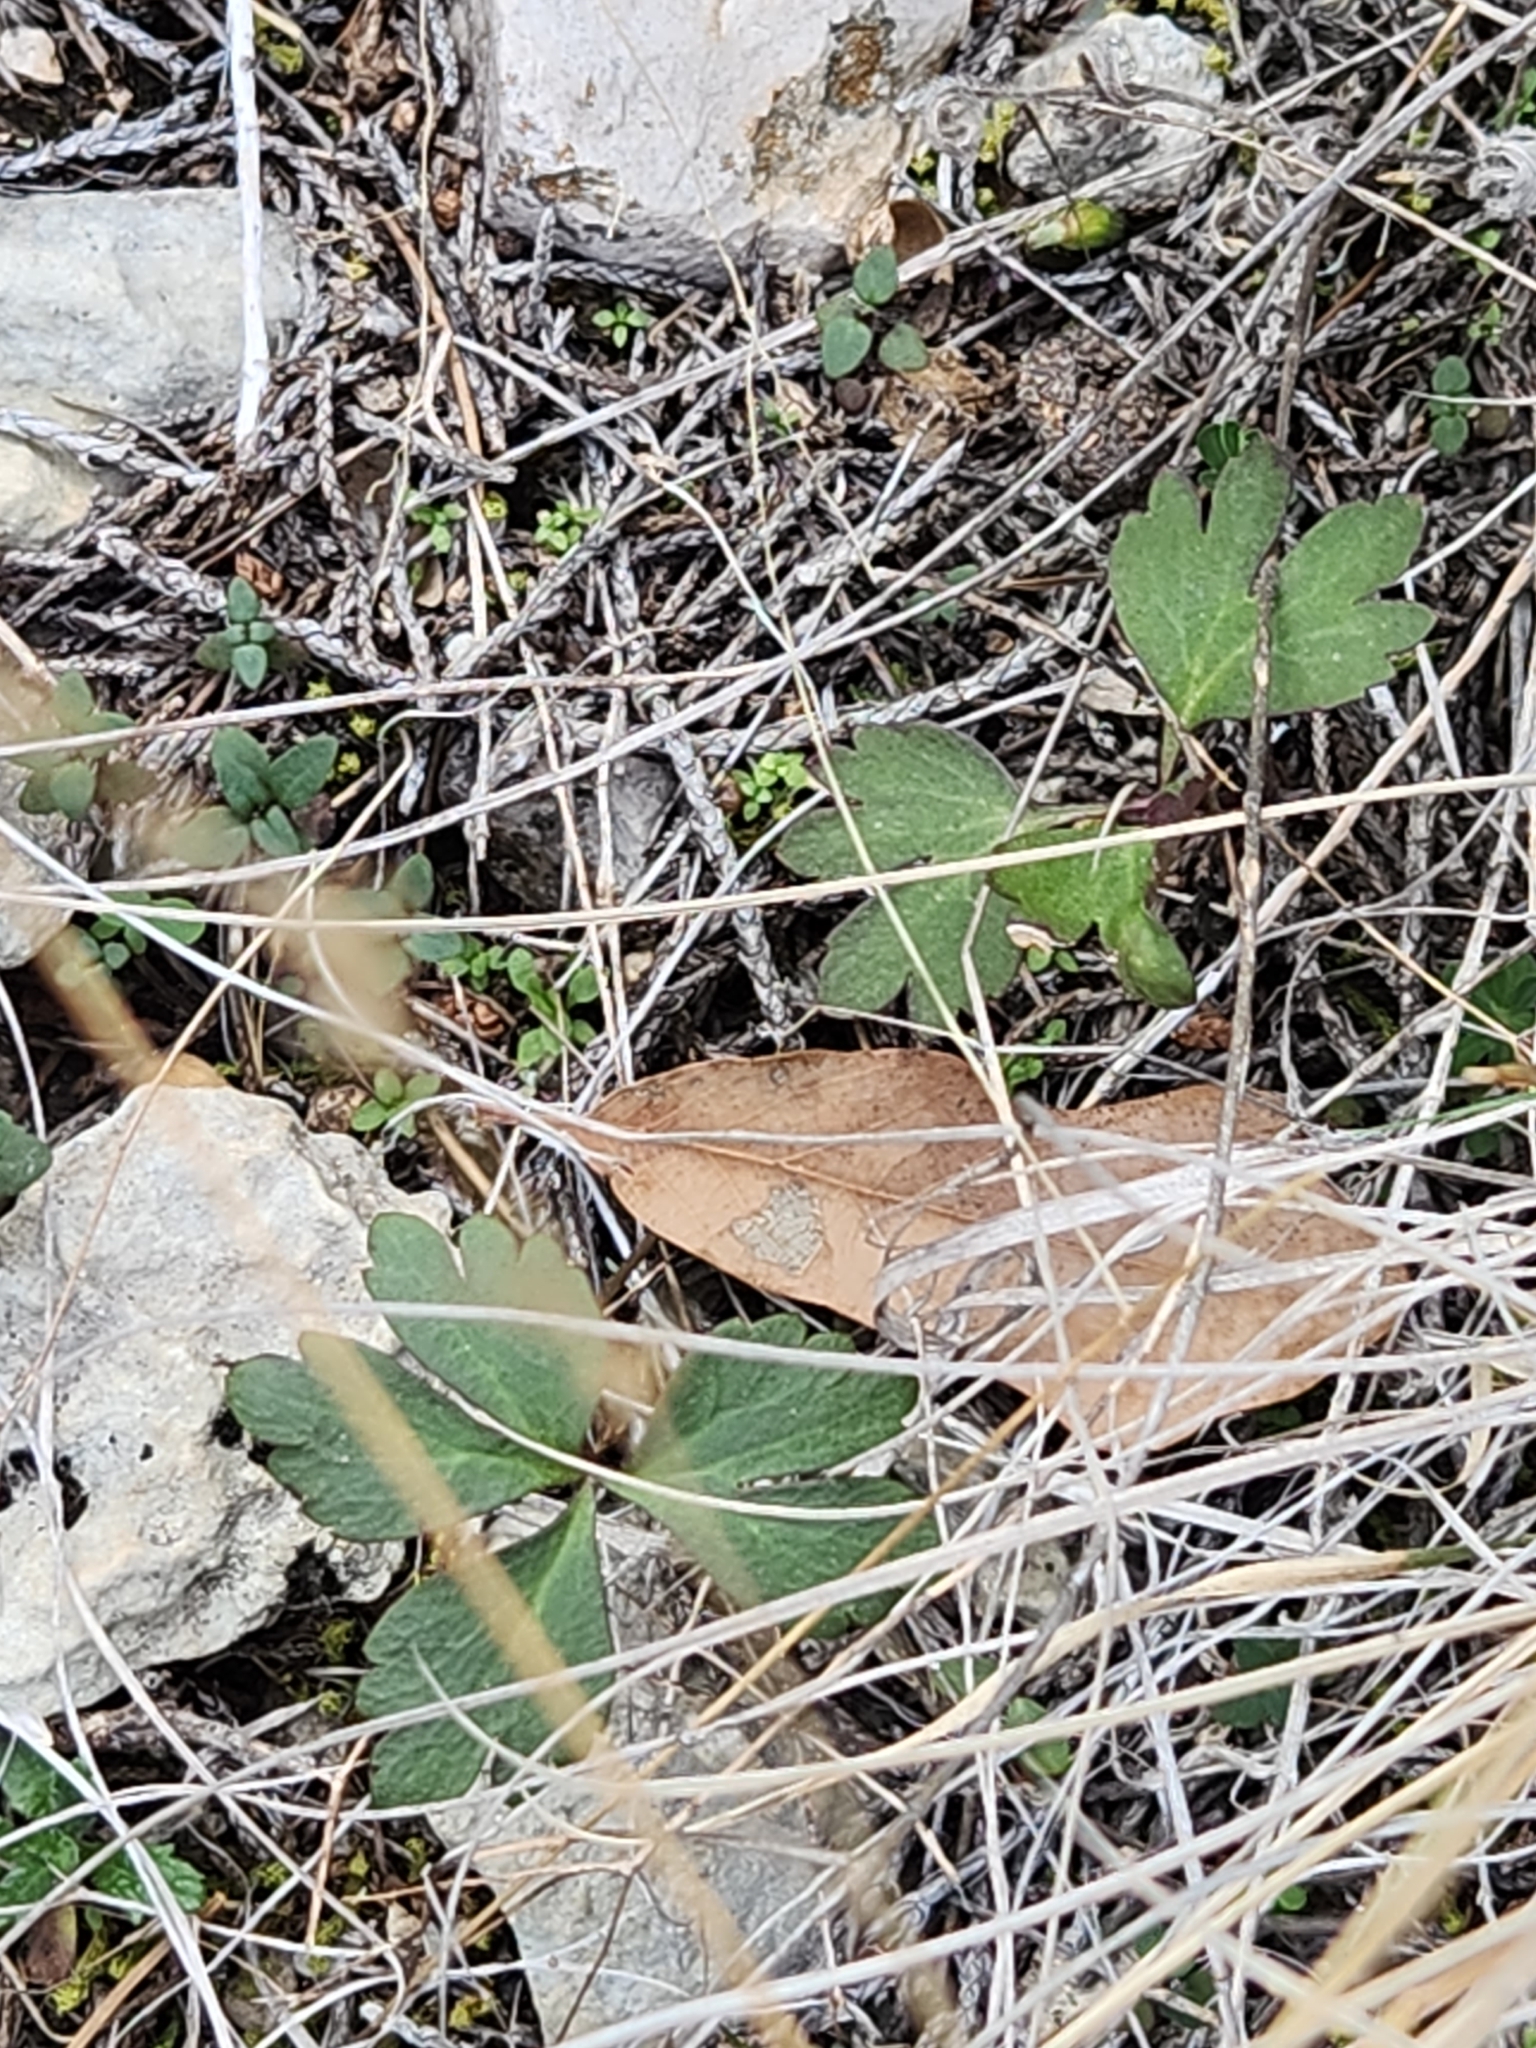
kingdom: Plantae
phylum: Tracheophyta
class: Magnoliopsida
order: Ranunculales
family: Ranunculaceae
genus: Anemone
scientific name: Anemone edwardsiana
